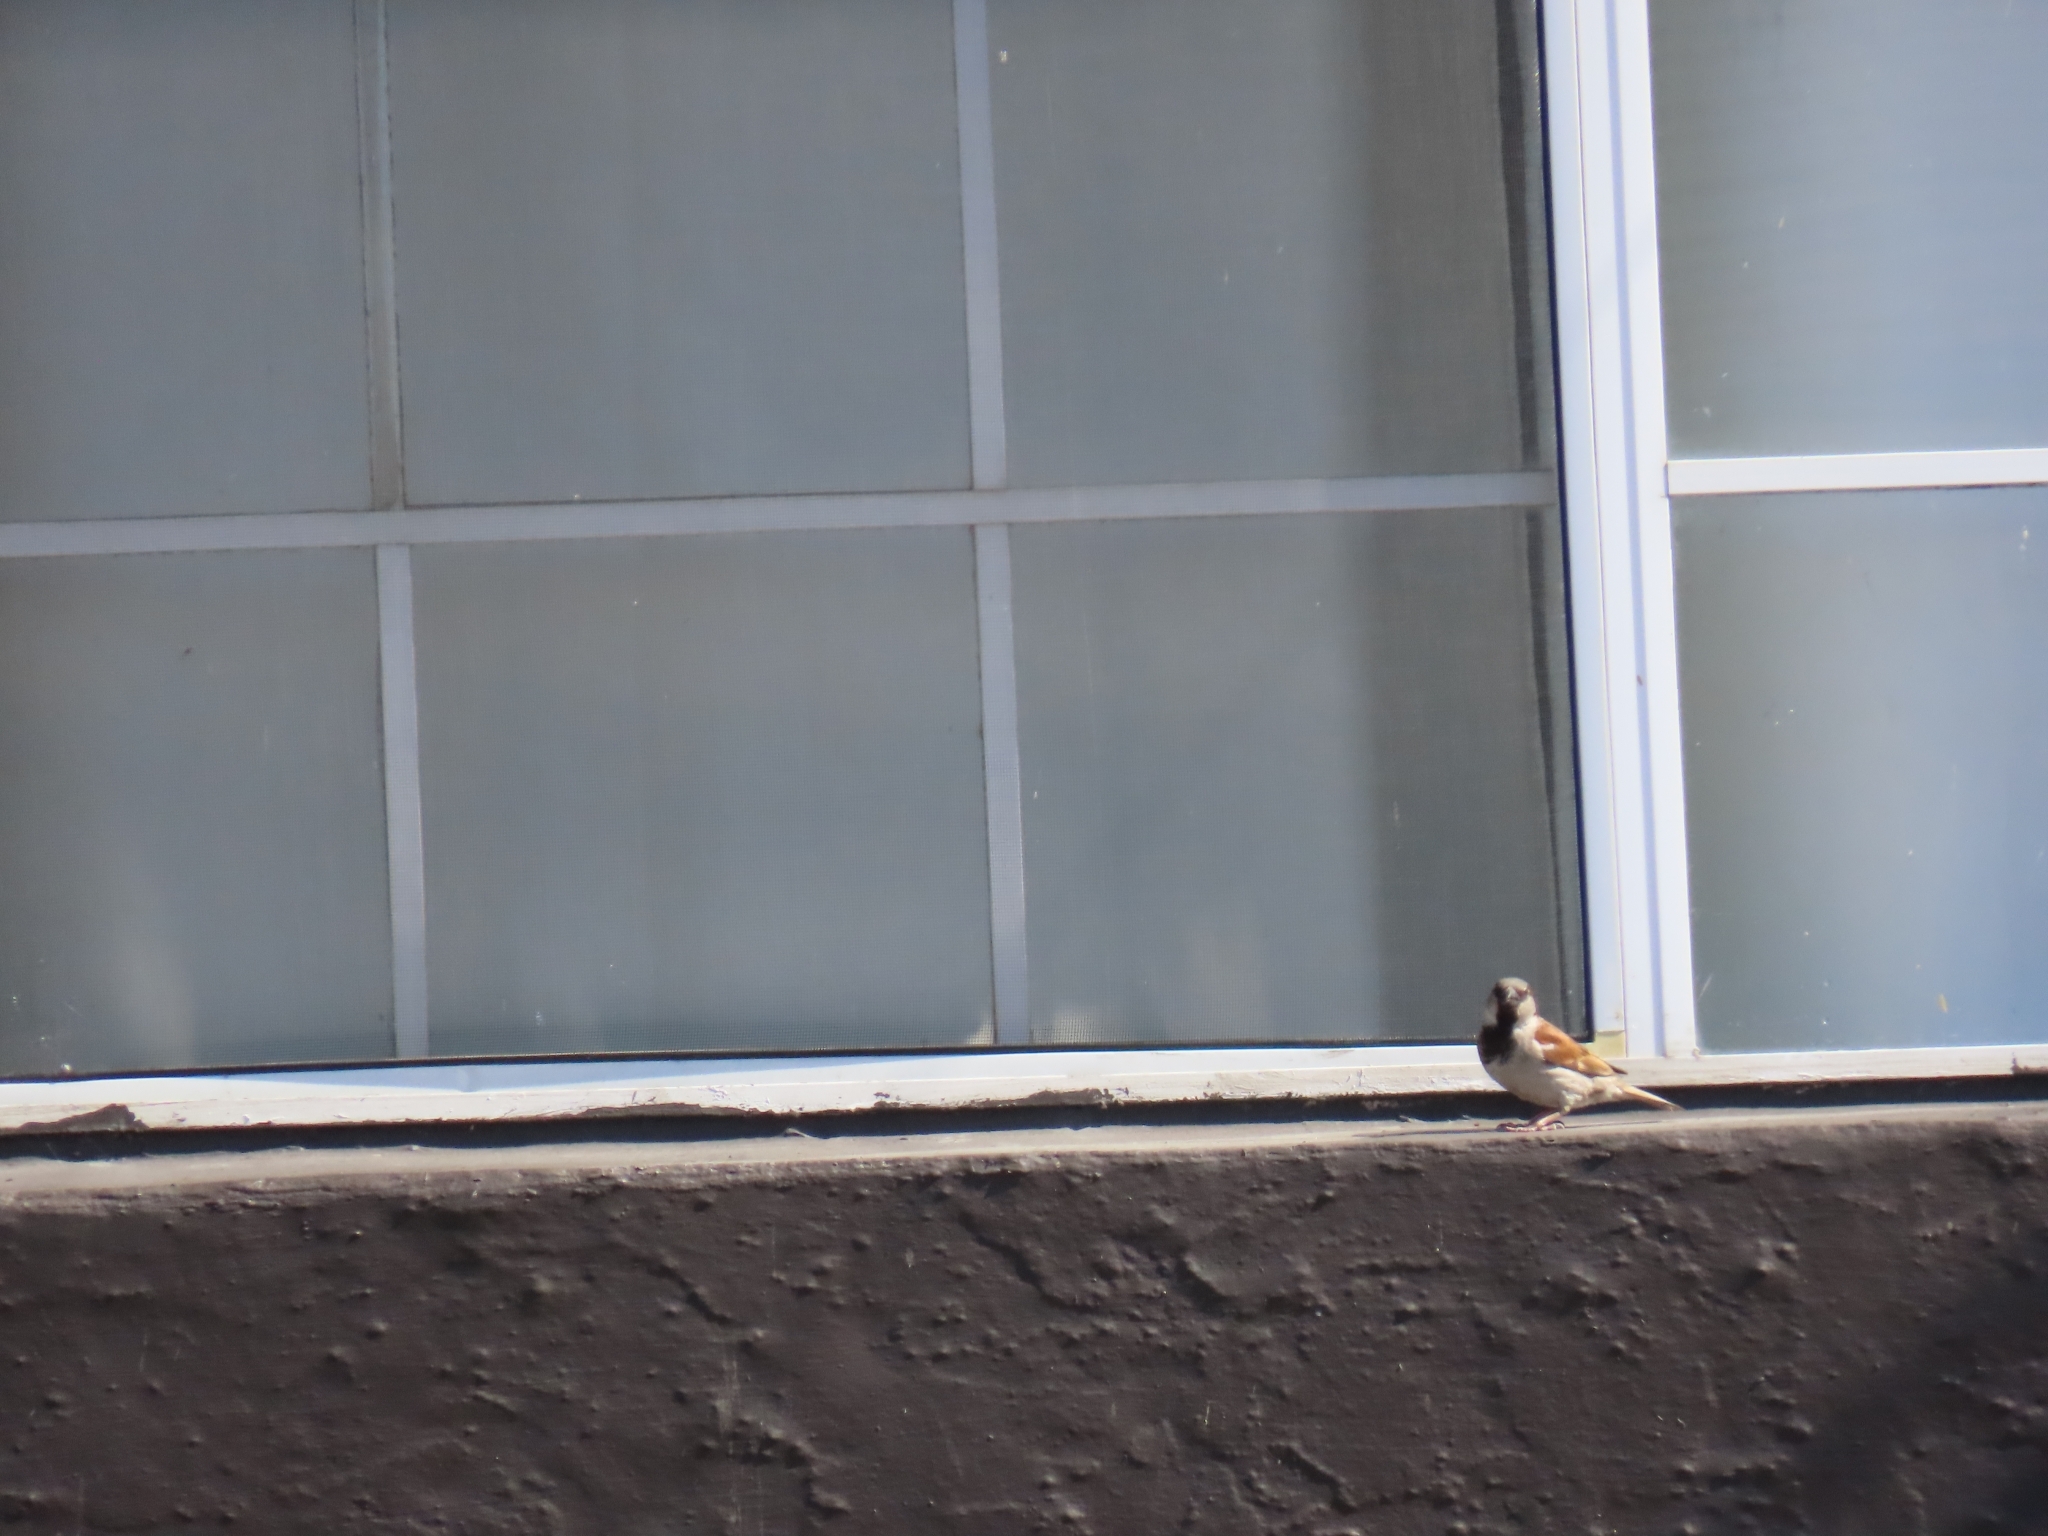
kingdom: Animalia
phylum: Chordata
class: Aves
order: Passeriformes
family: Passeridae
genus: Passer
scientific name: Passer domesticus
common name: House sparrow
